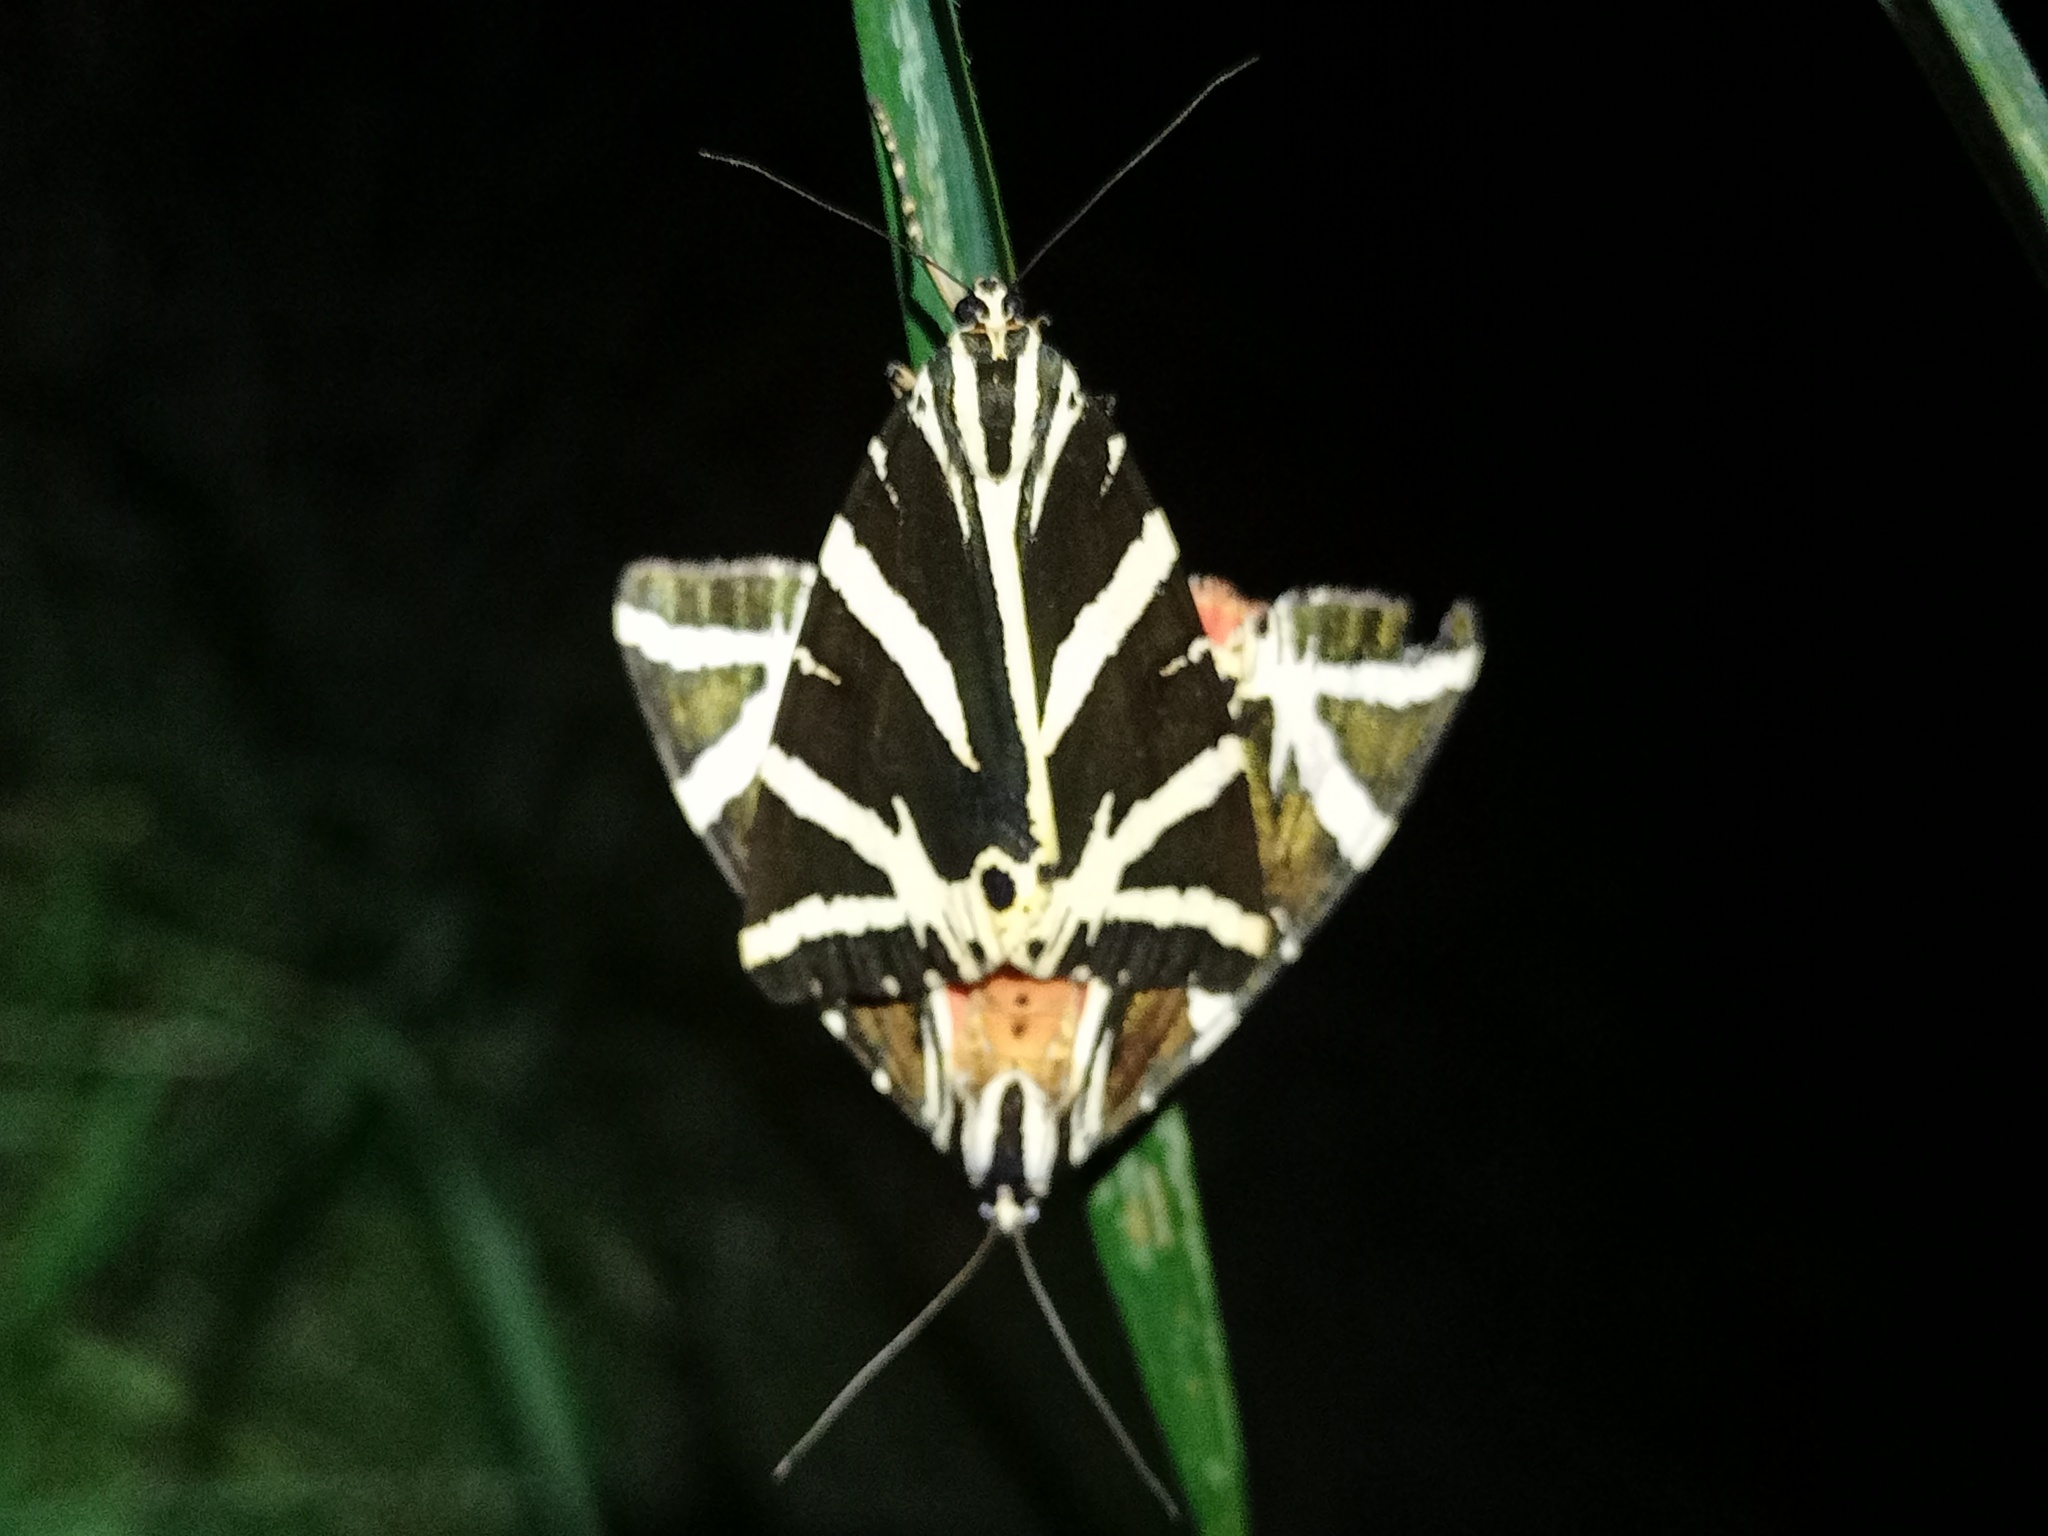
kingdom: Animalia
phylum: Arthropoda
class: Insecta
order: Lepidoptera
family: Erebidae
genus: Euplagia
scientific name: Euplagia quadripunctaria
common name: Jersey tiger
